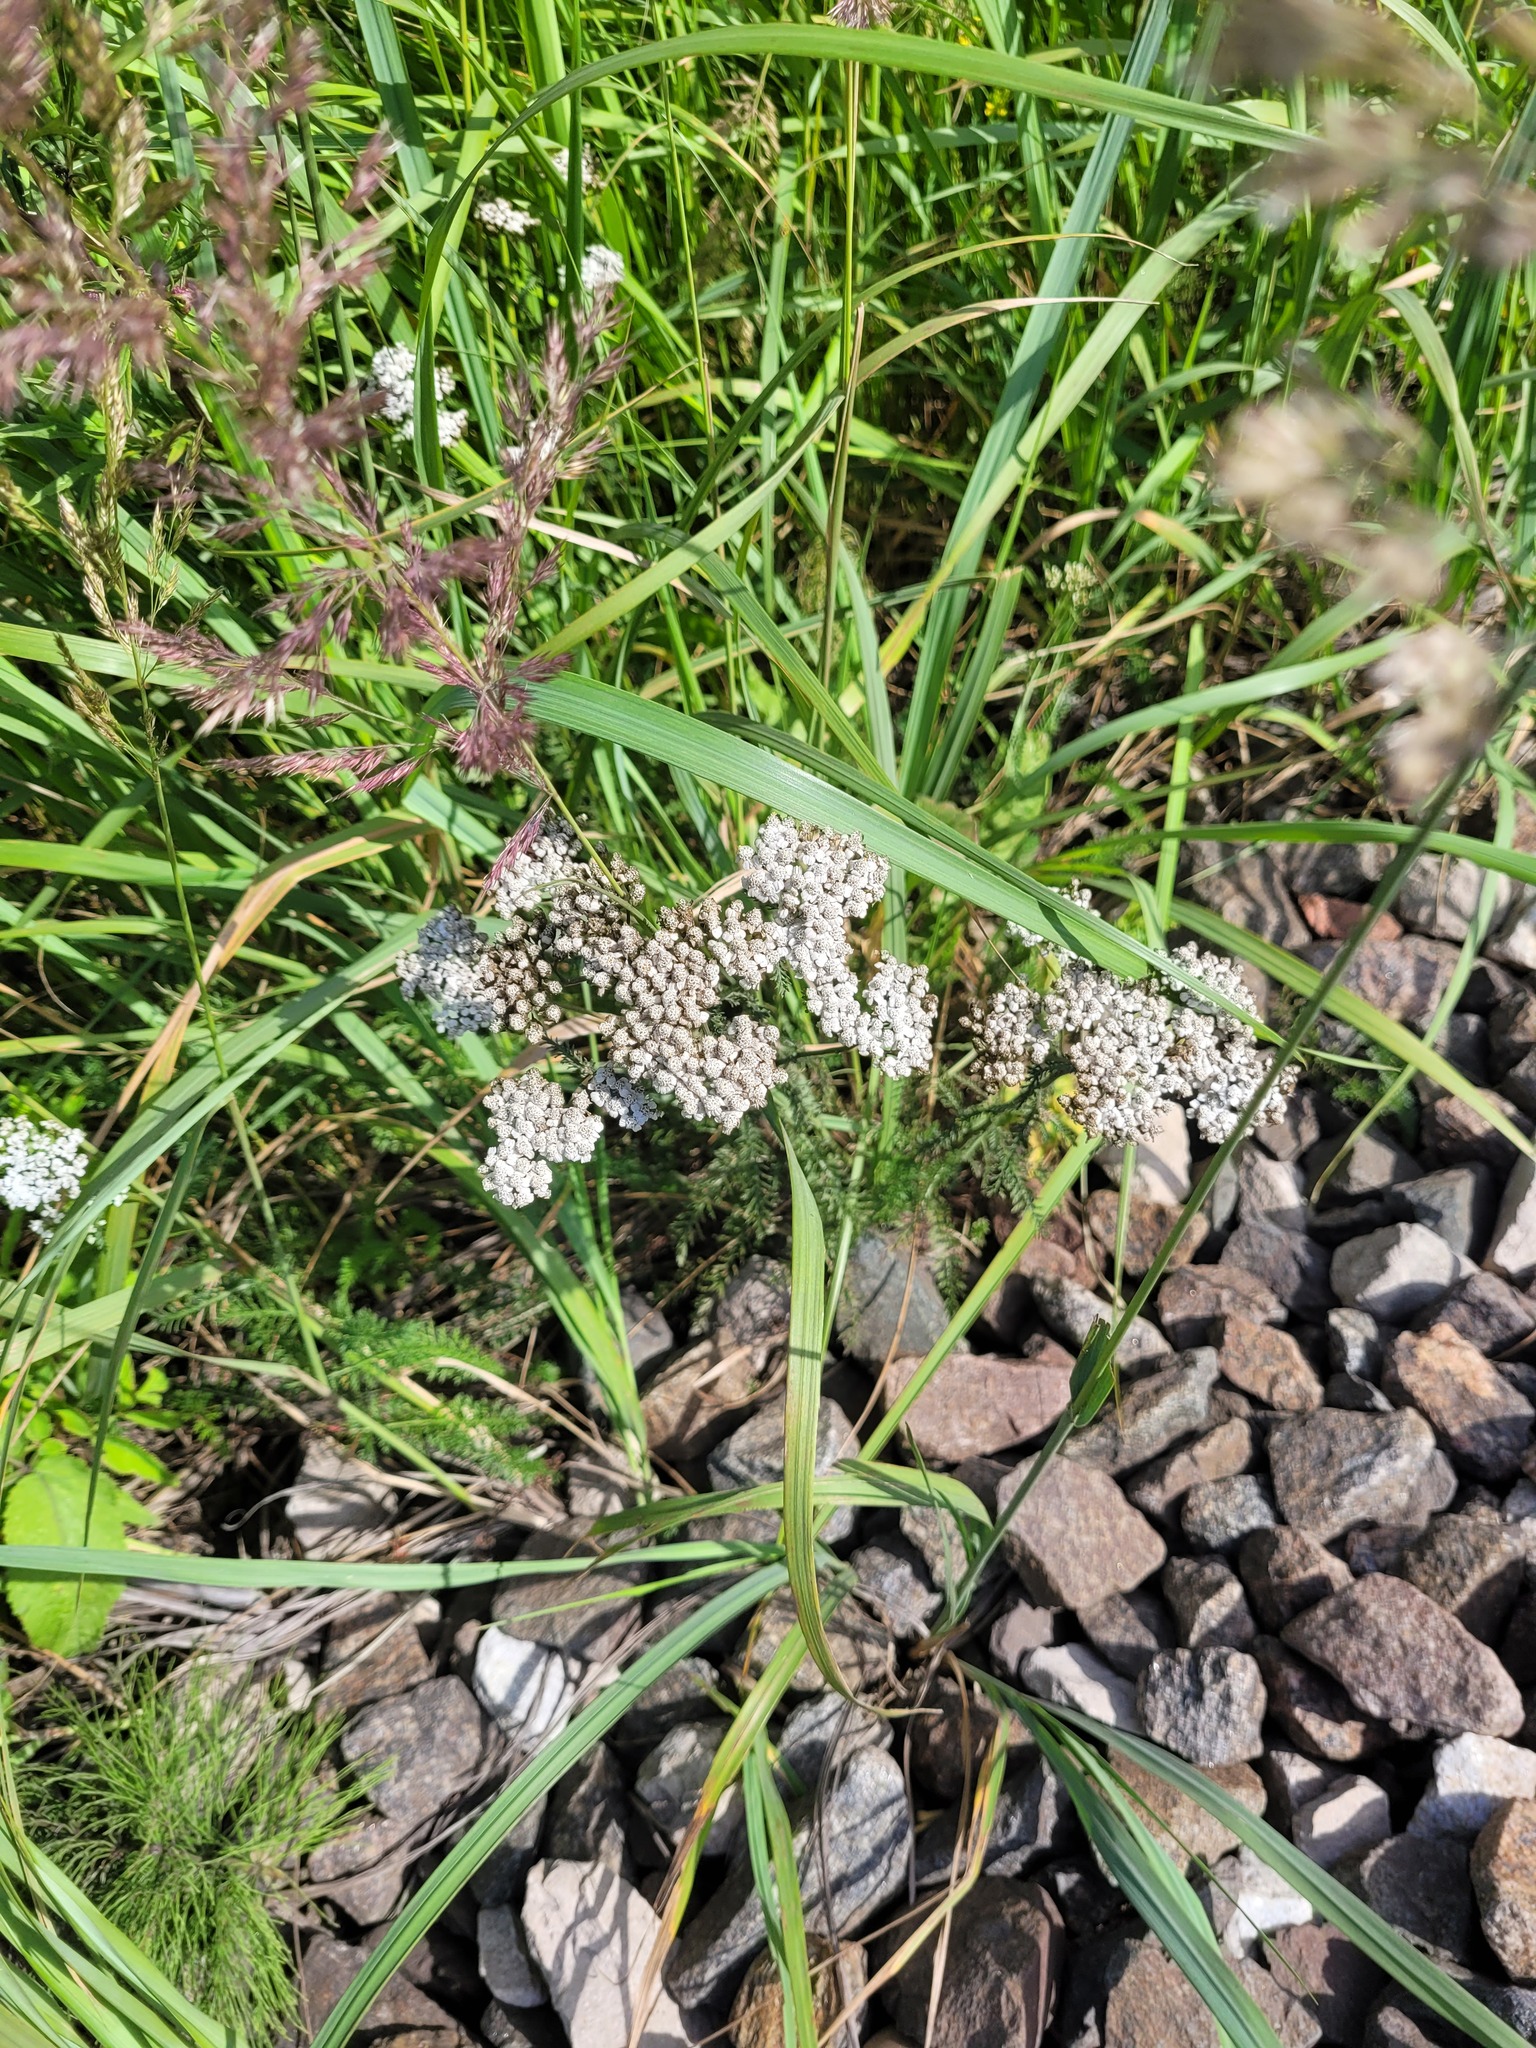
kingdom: Plantae
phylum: Tracheophyta
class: Magnoliopsida
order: Asterales
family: Asteraceae
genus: Achillea
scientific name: Achillea millefolium
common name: Yarrow
